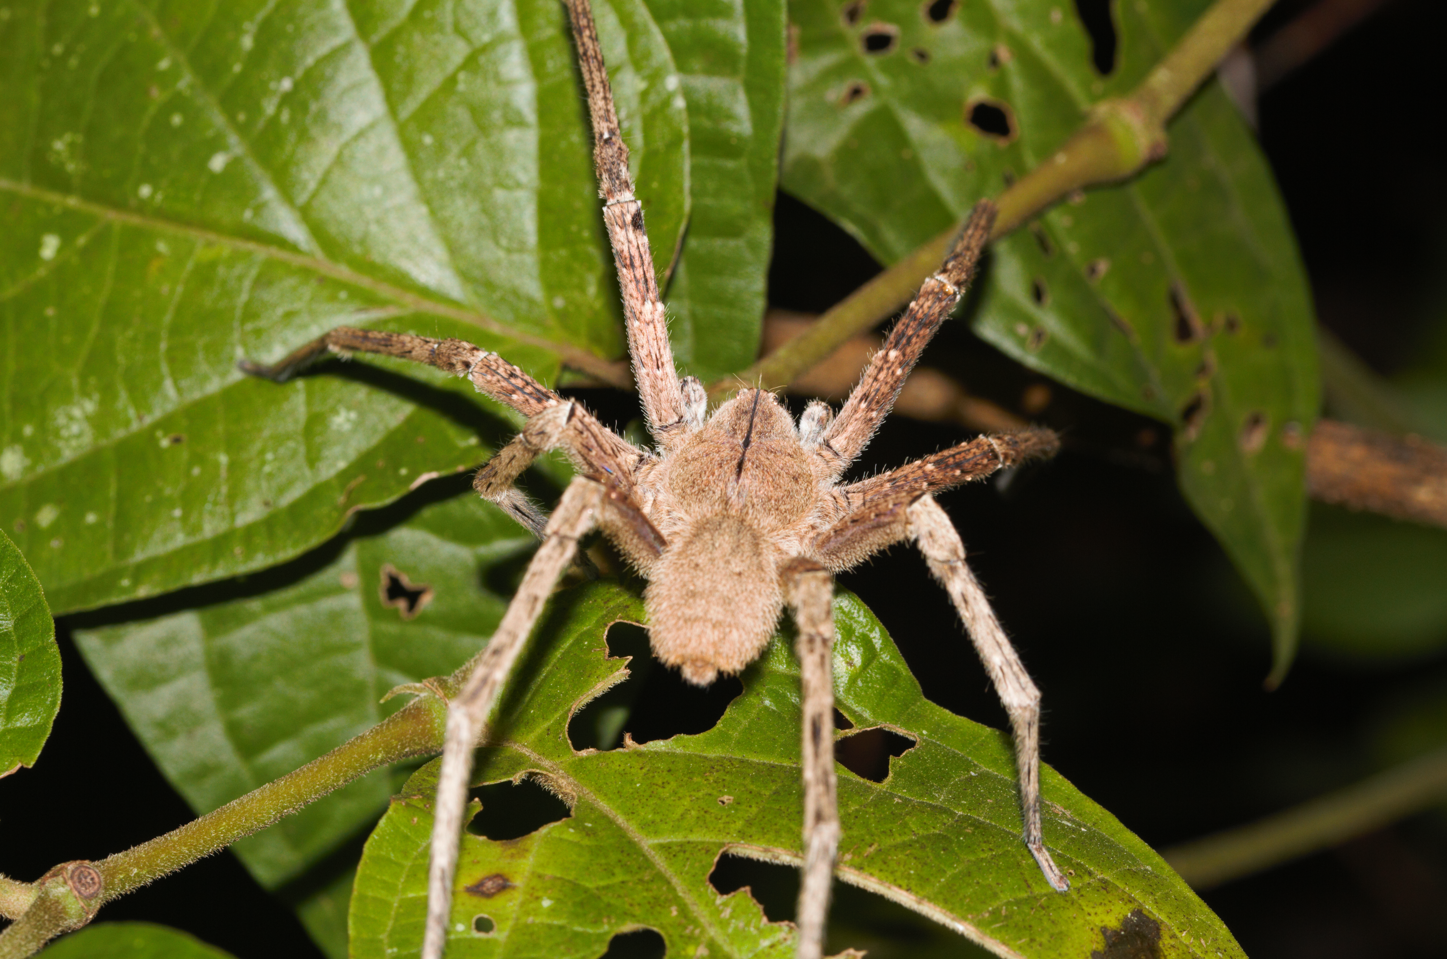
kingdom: Animalia
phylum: Arthropoda
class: Arachnida
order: Araneae
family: Ctenidae
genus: Phoneutria
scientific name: Phoneutria fera
